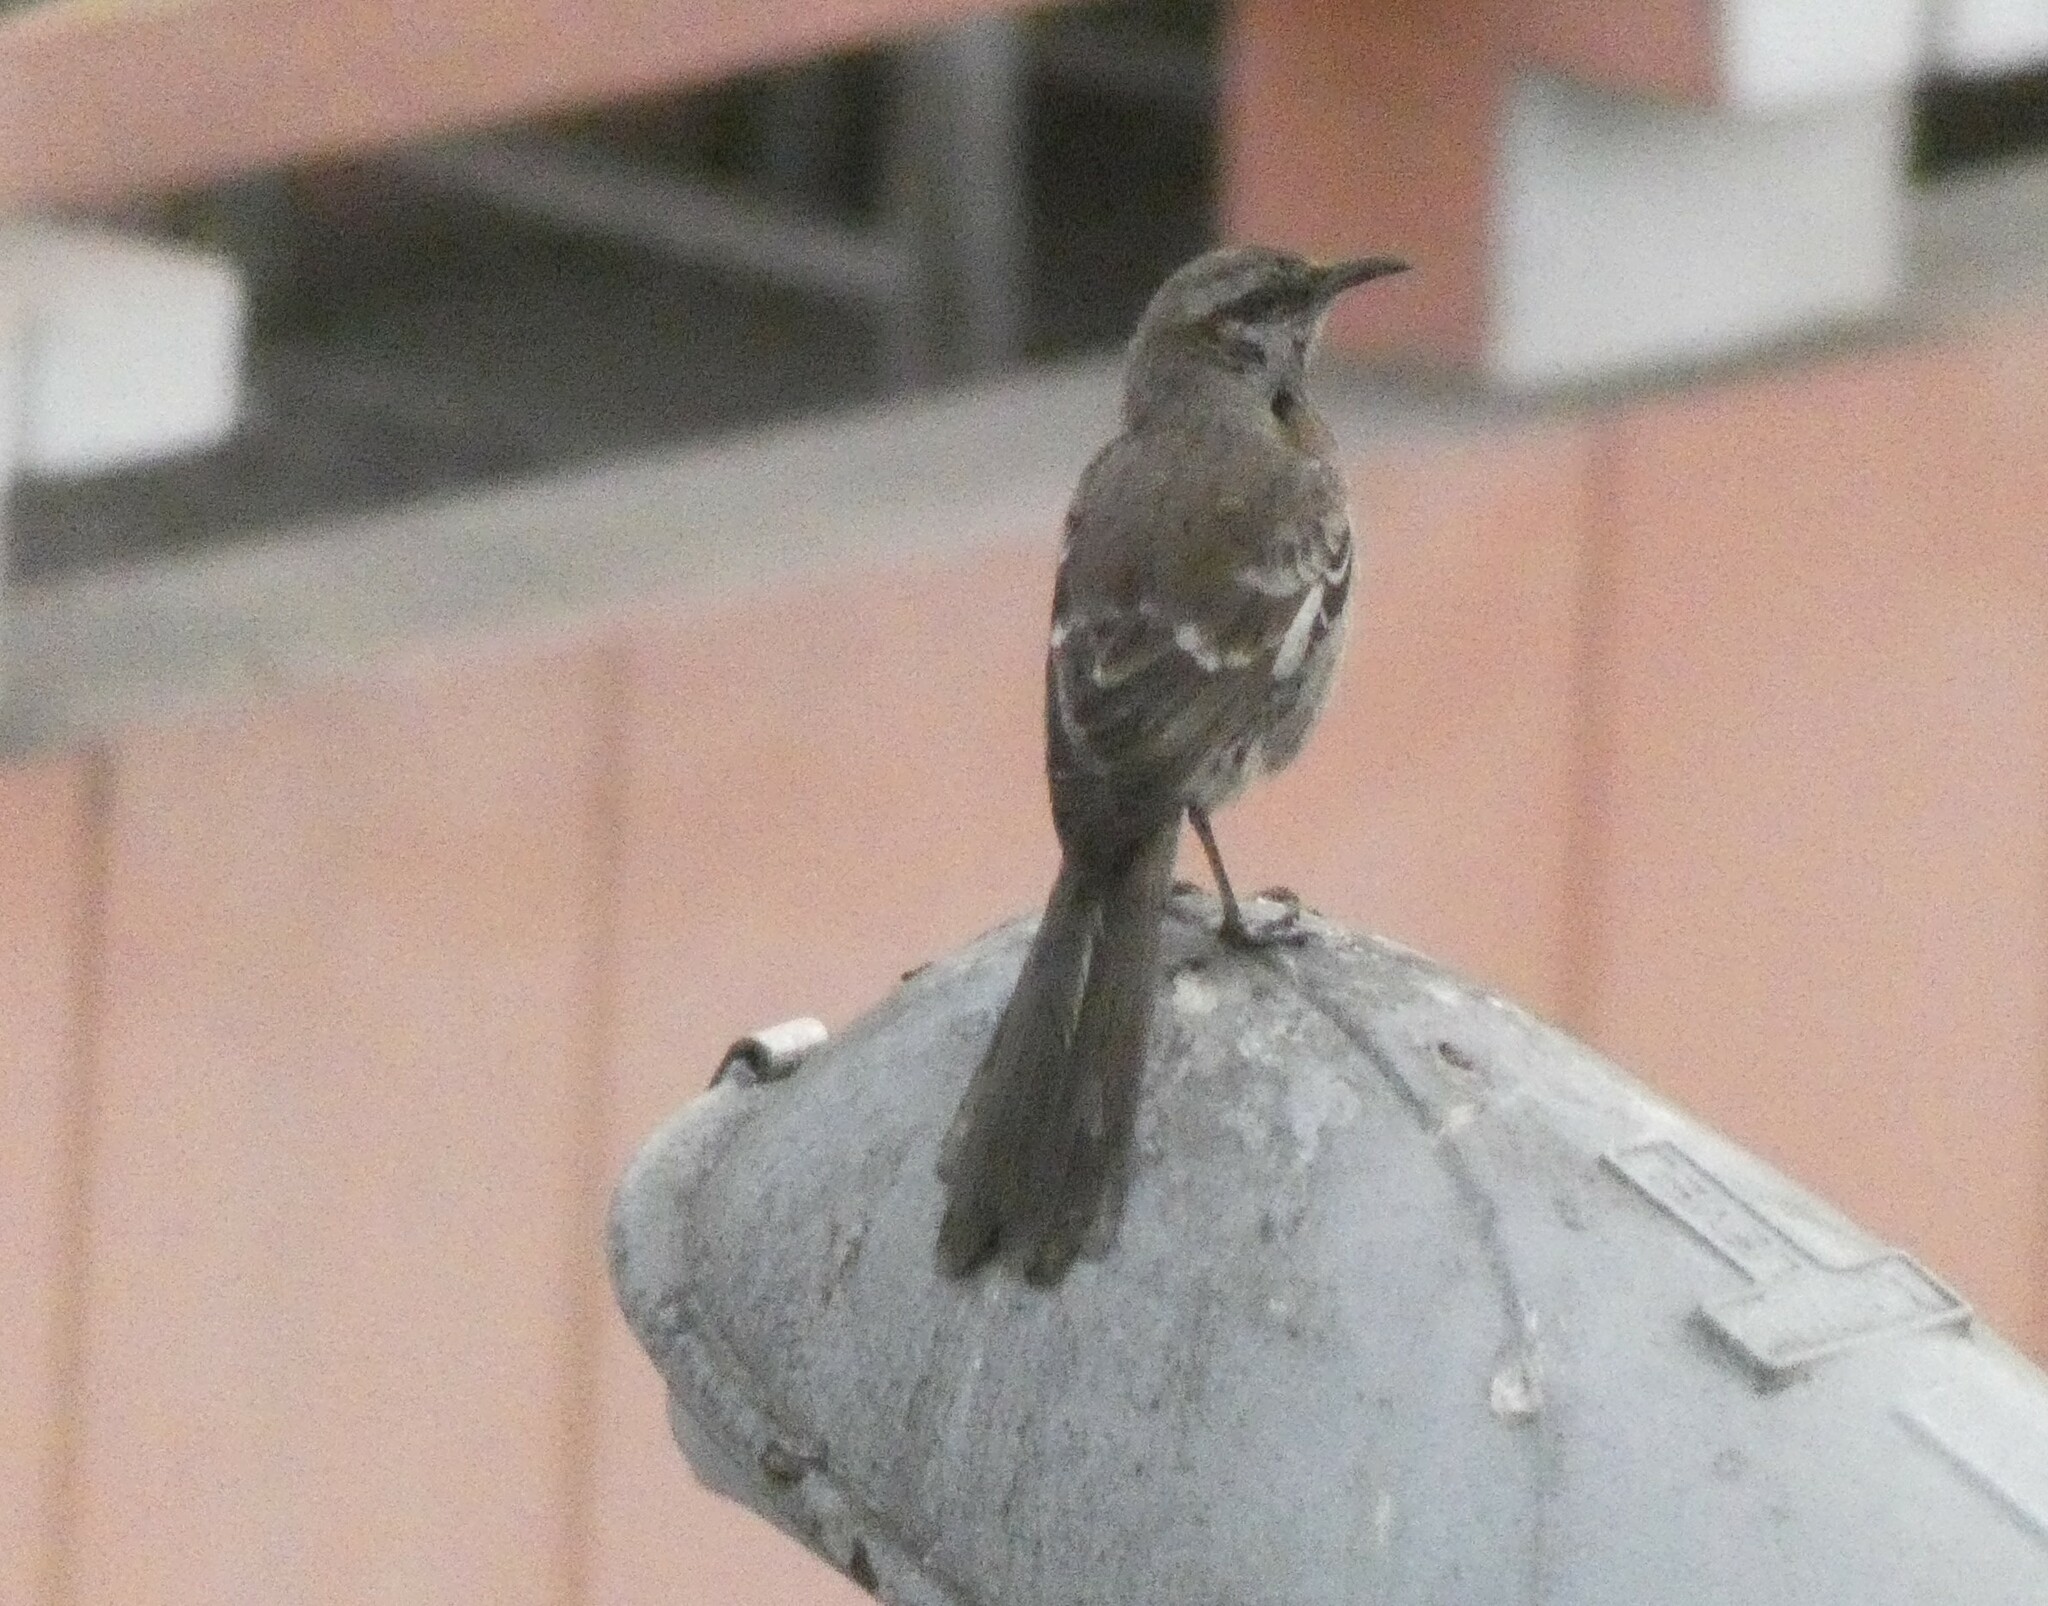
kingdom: Animalia
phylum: Chordata
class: Aves
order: Passeriformes
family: Mimidae
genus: Mimus
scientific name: Mimus longicaudatus
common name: Long-tailed mockingbird
